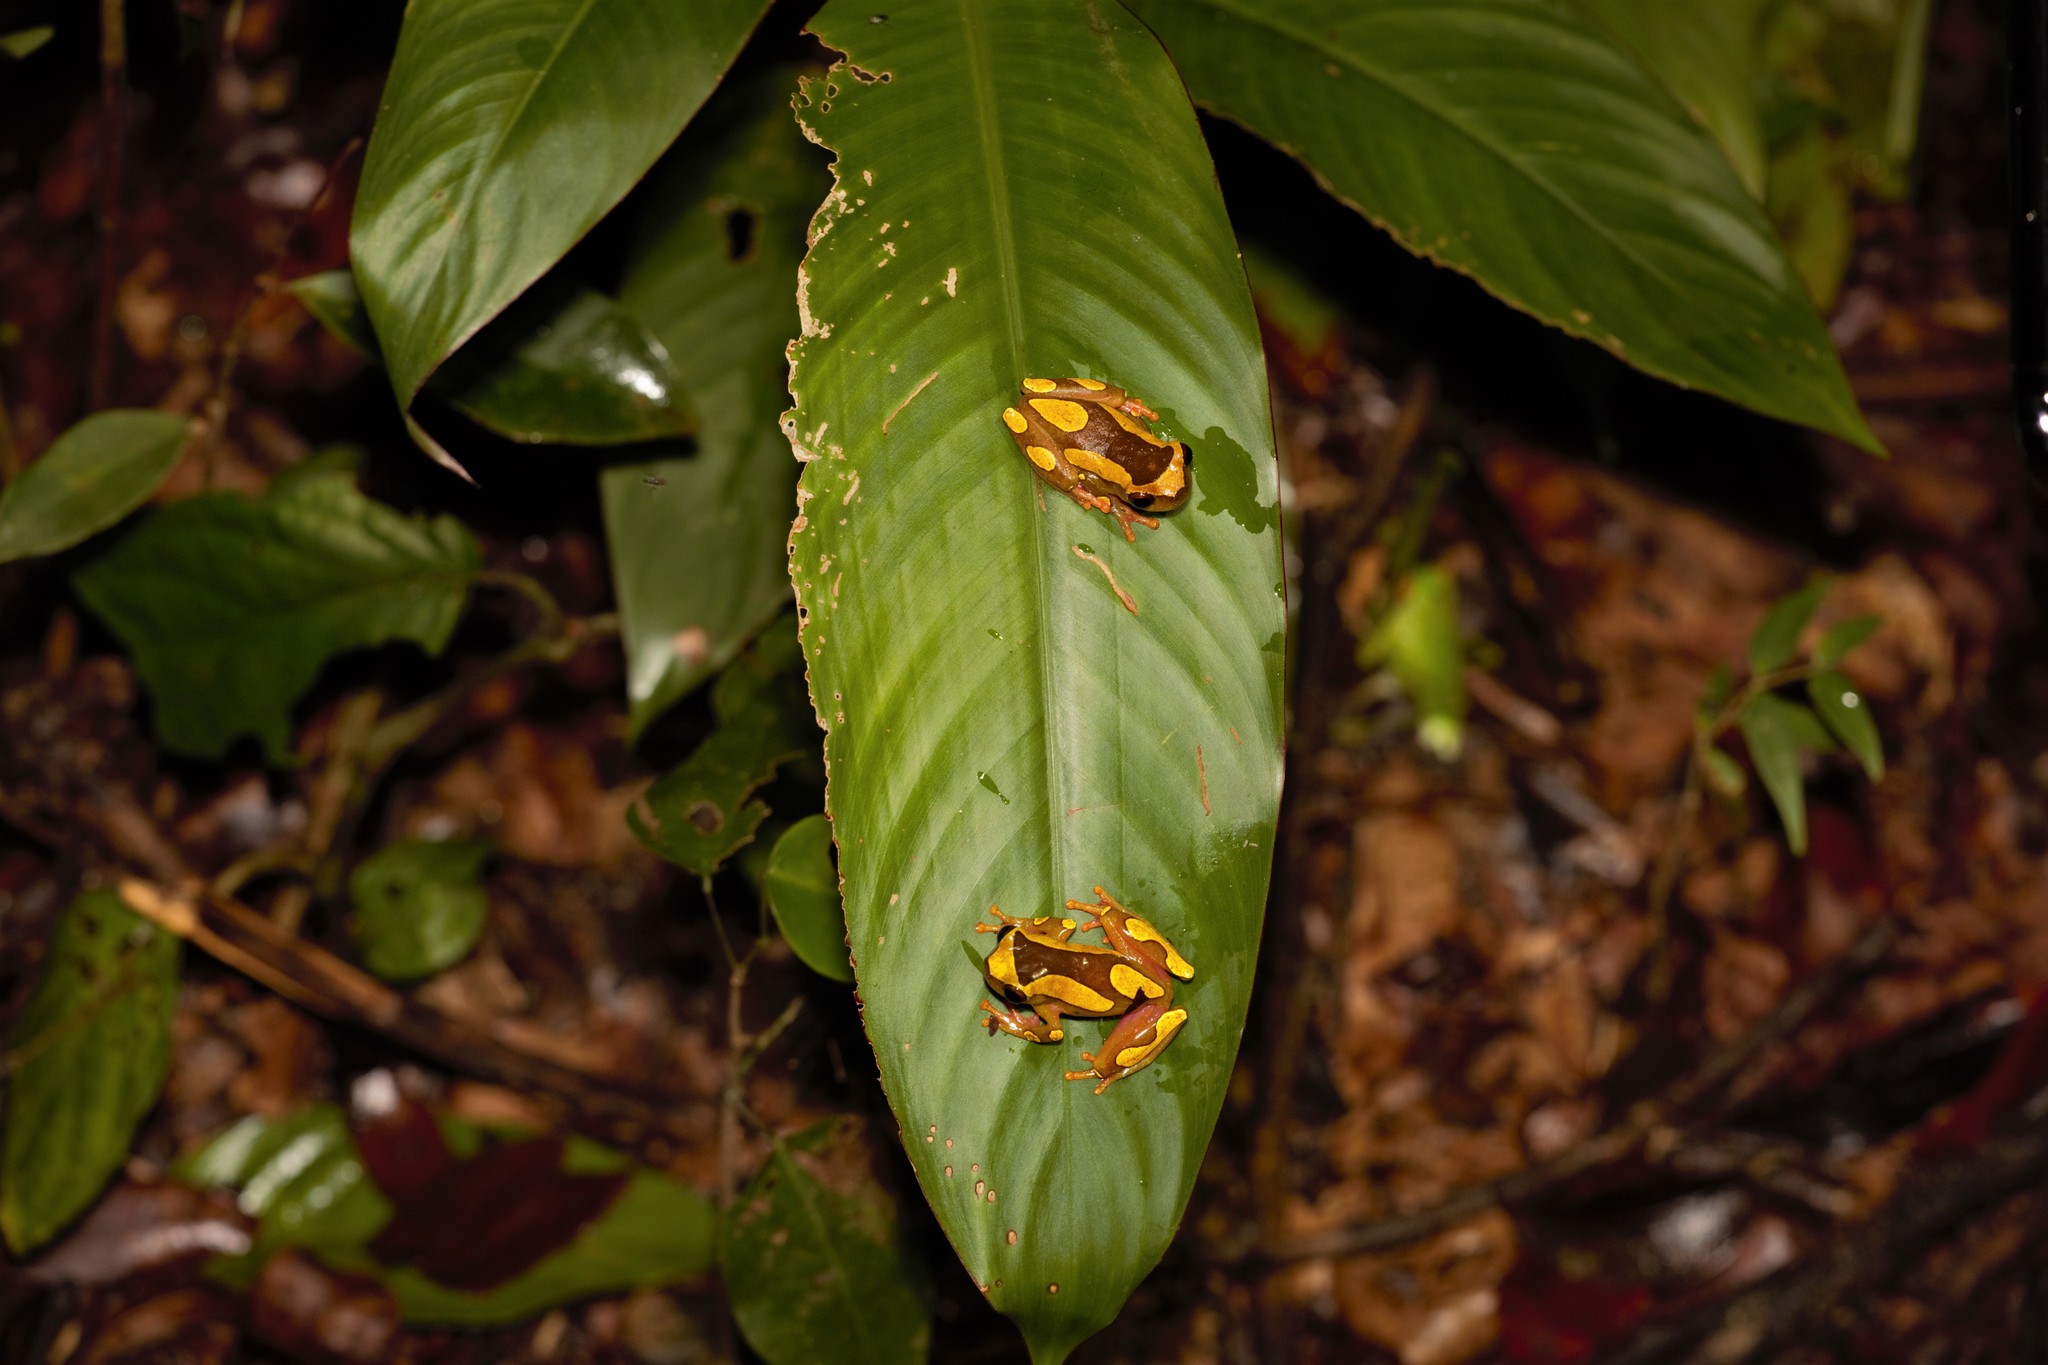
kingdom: Animalia
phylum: Chordata
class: Amphibia
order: Anura
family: Hylidae
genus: Dendropsophus
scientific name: Dendropsophus leucophyllatus
